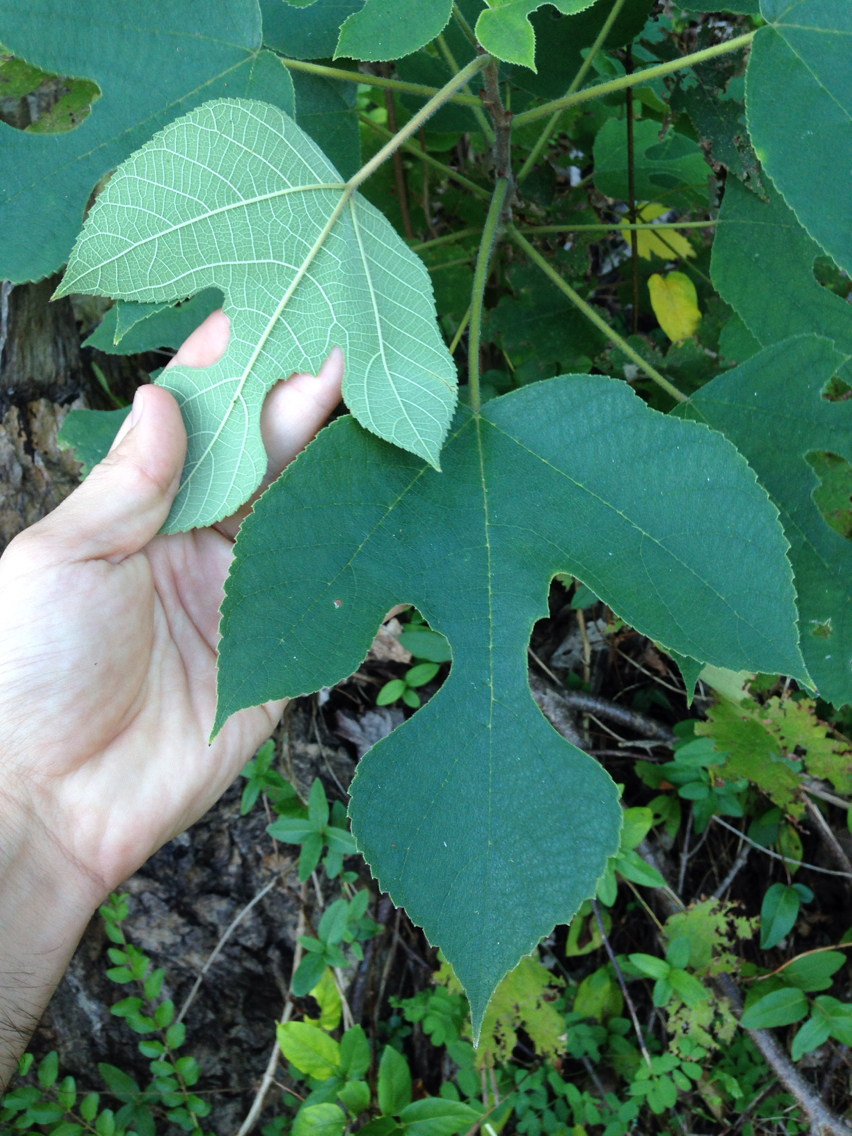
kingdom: Plantae
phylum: Tracheophyta
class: Magnoliopsida
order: Rosales
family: Moraceae
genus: Broussonetia
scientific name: Broussonetia papyrifera
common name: Paper mulberry
